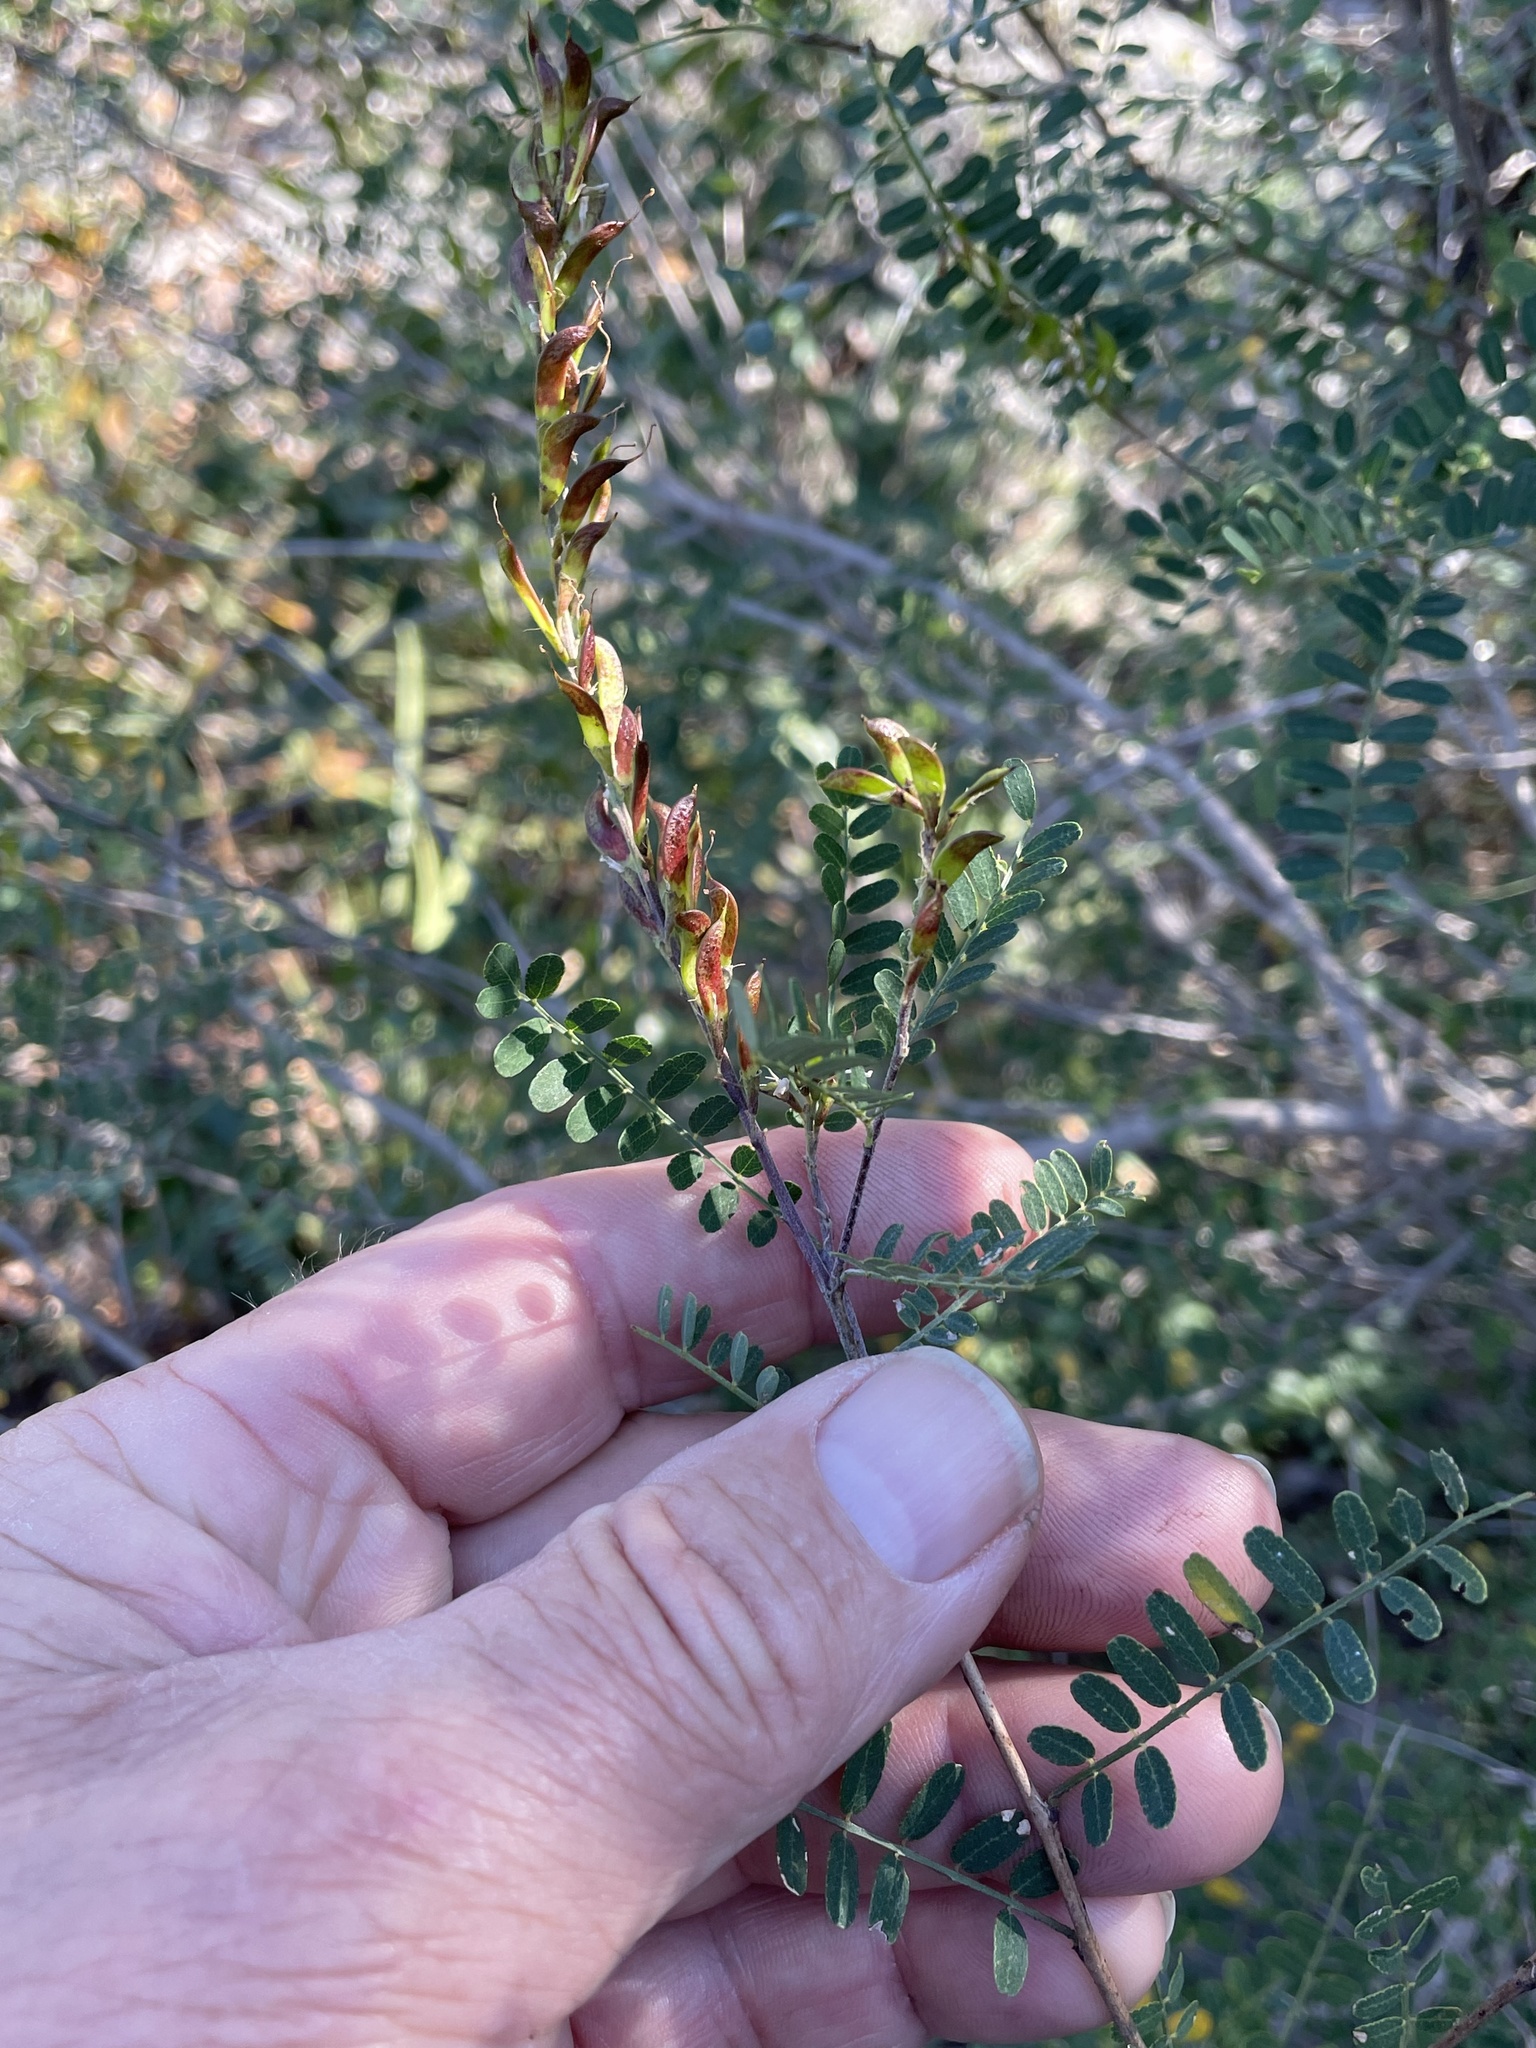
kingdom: Plantae
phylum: Tracheophyta
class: Magnoliopsida
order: Fabales
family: Fabaceae
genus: Eysenhardtia
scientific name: Eysenhardtia texana
